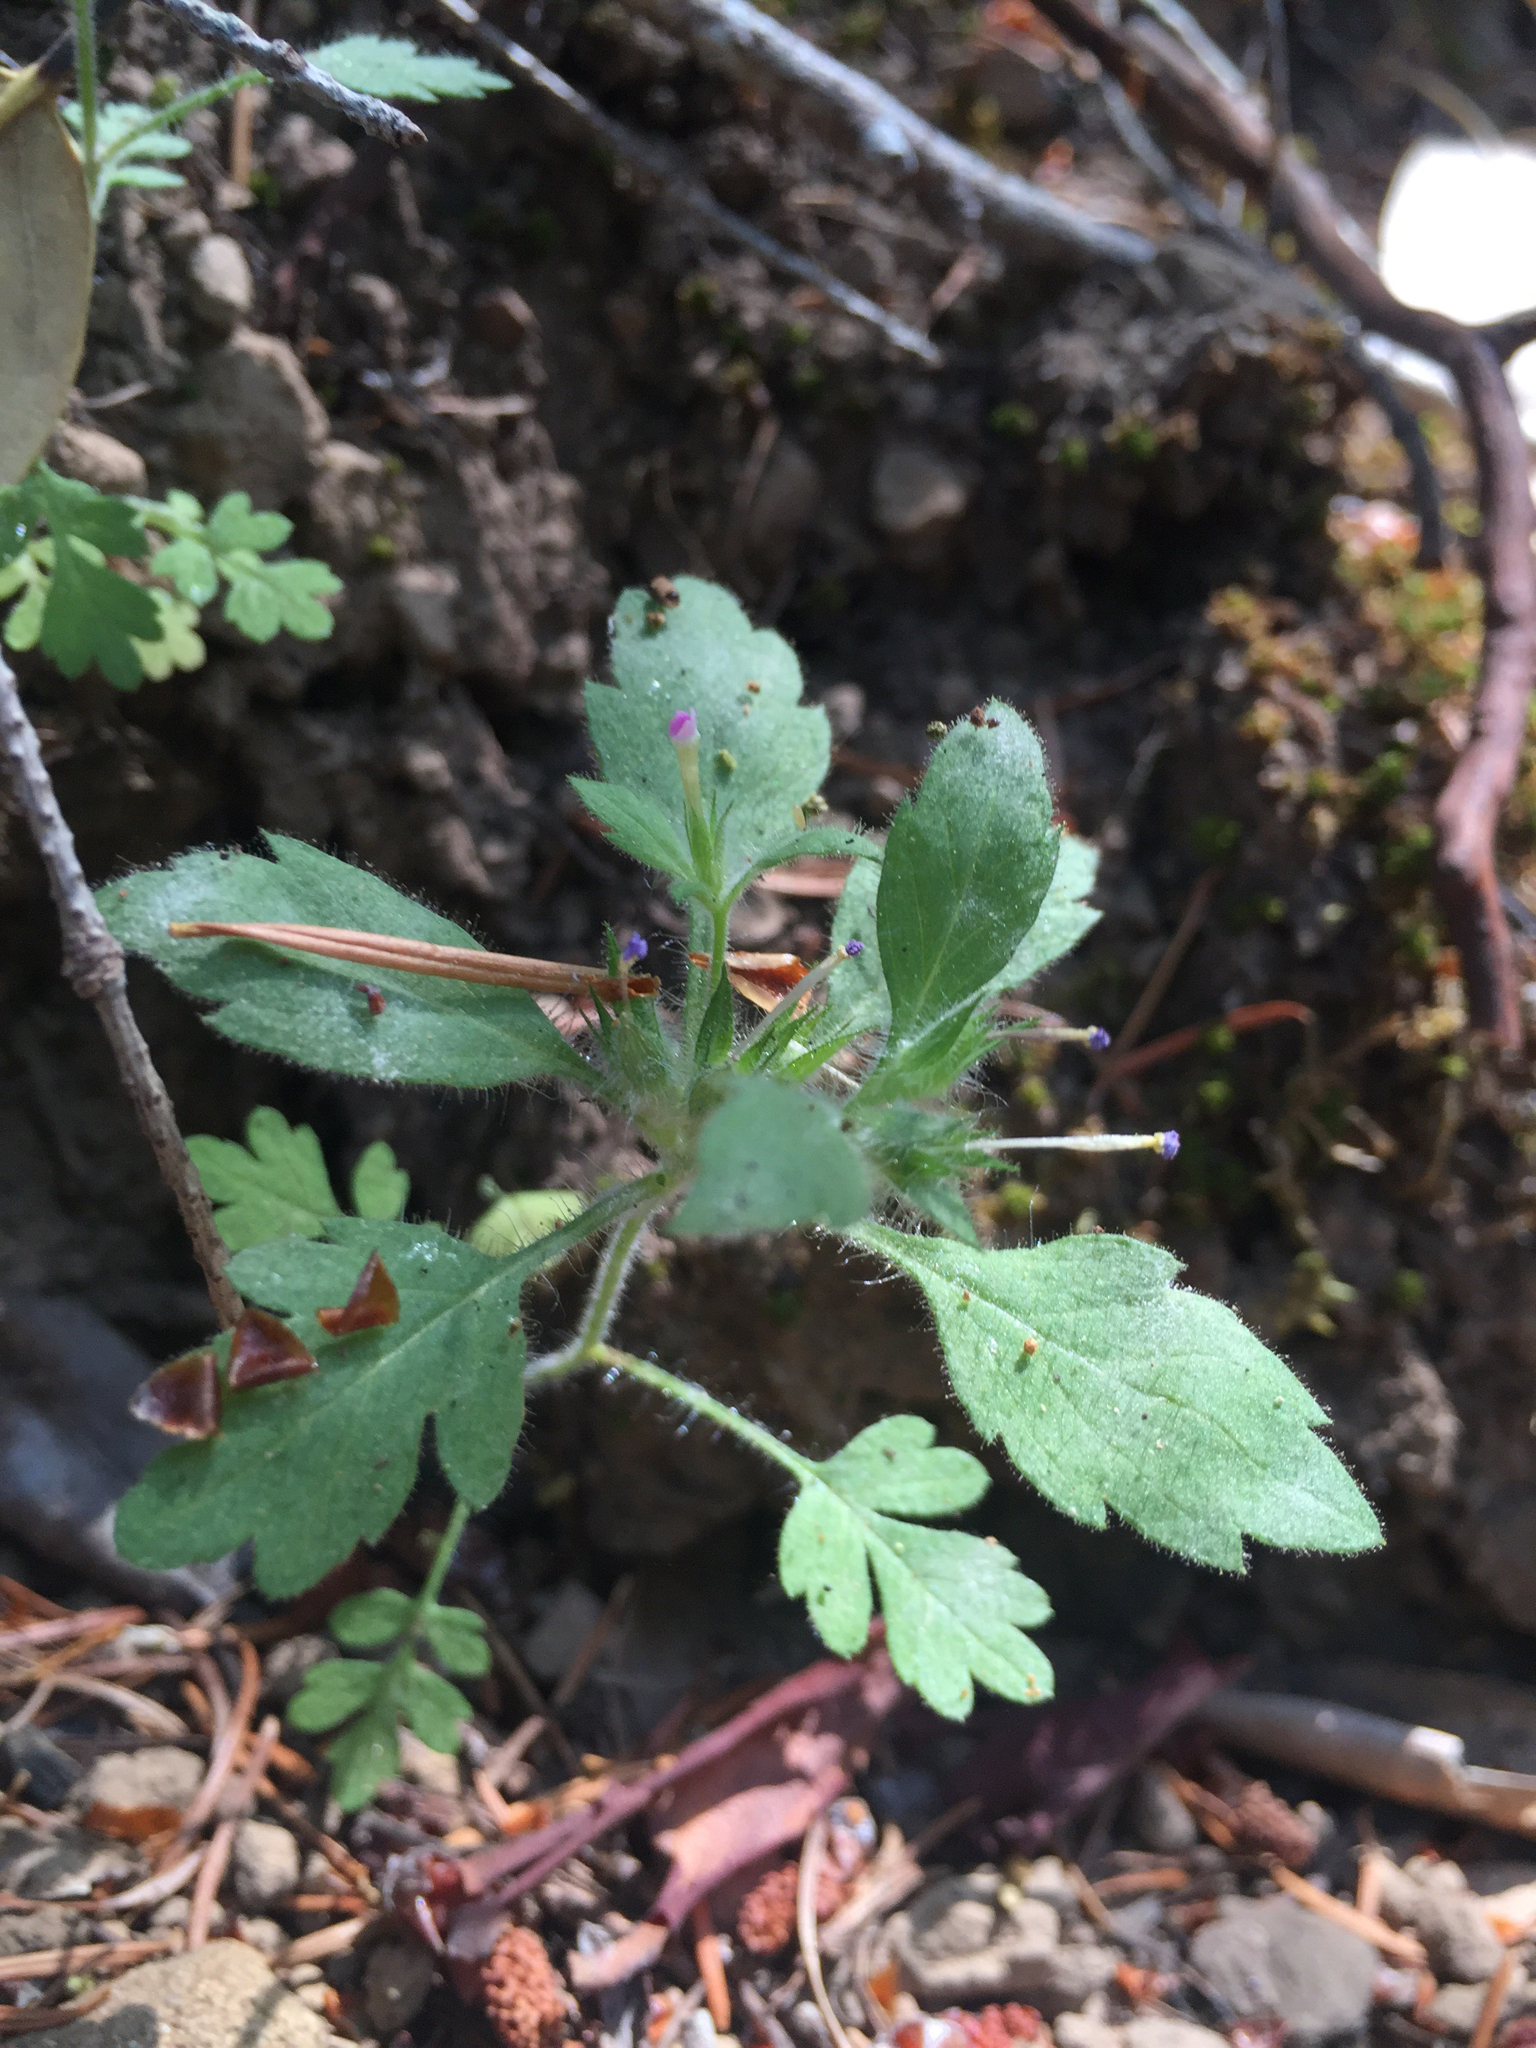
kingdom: Plantae
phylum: Tracheophyta
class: Magnoliopsida
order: Ericales
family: Polemoniaceae
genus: Collomia
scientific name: Collomia heterophylla
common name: Variable-leaved collomia
